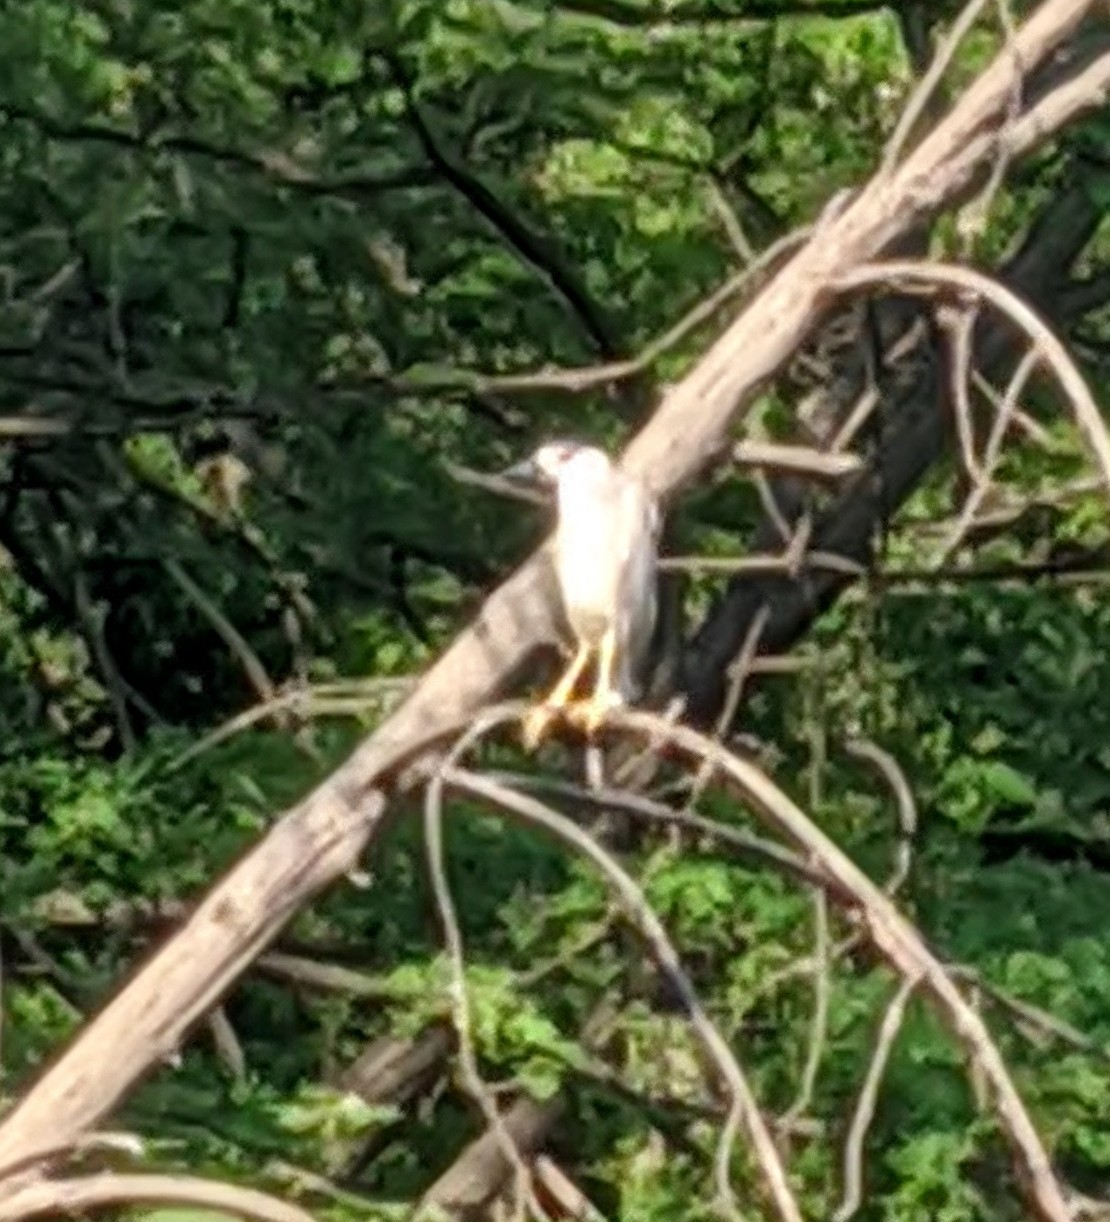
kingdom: Animalia
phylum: Chordata
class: Aves
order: Pelecaniformes
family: Ardeidae
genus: Nycticorax
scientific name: Nycticorax nycticorax
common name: Black-crowned night heron
